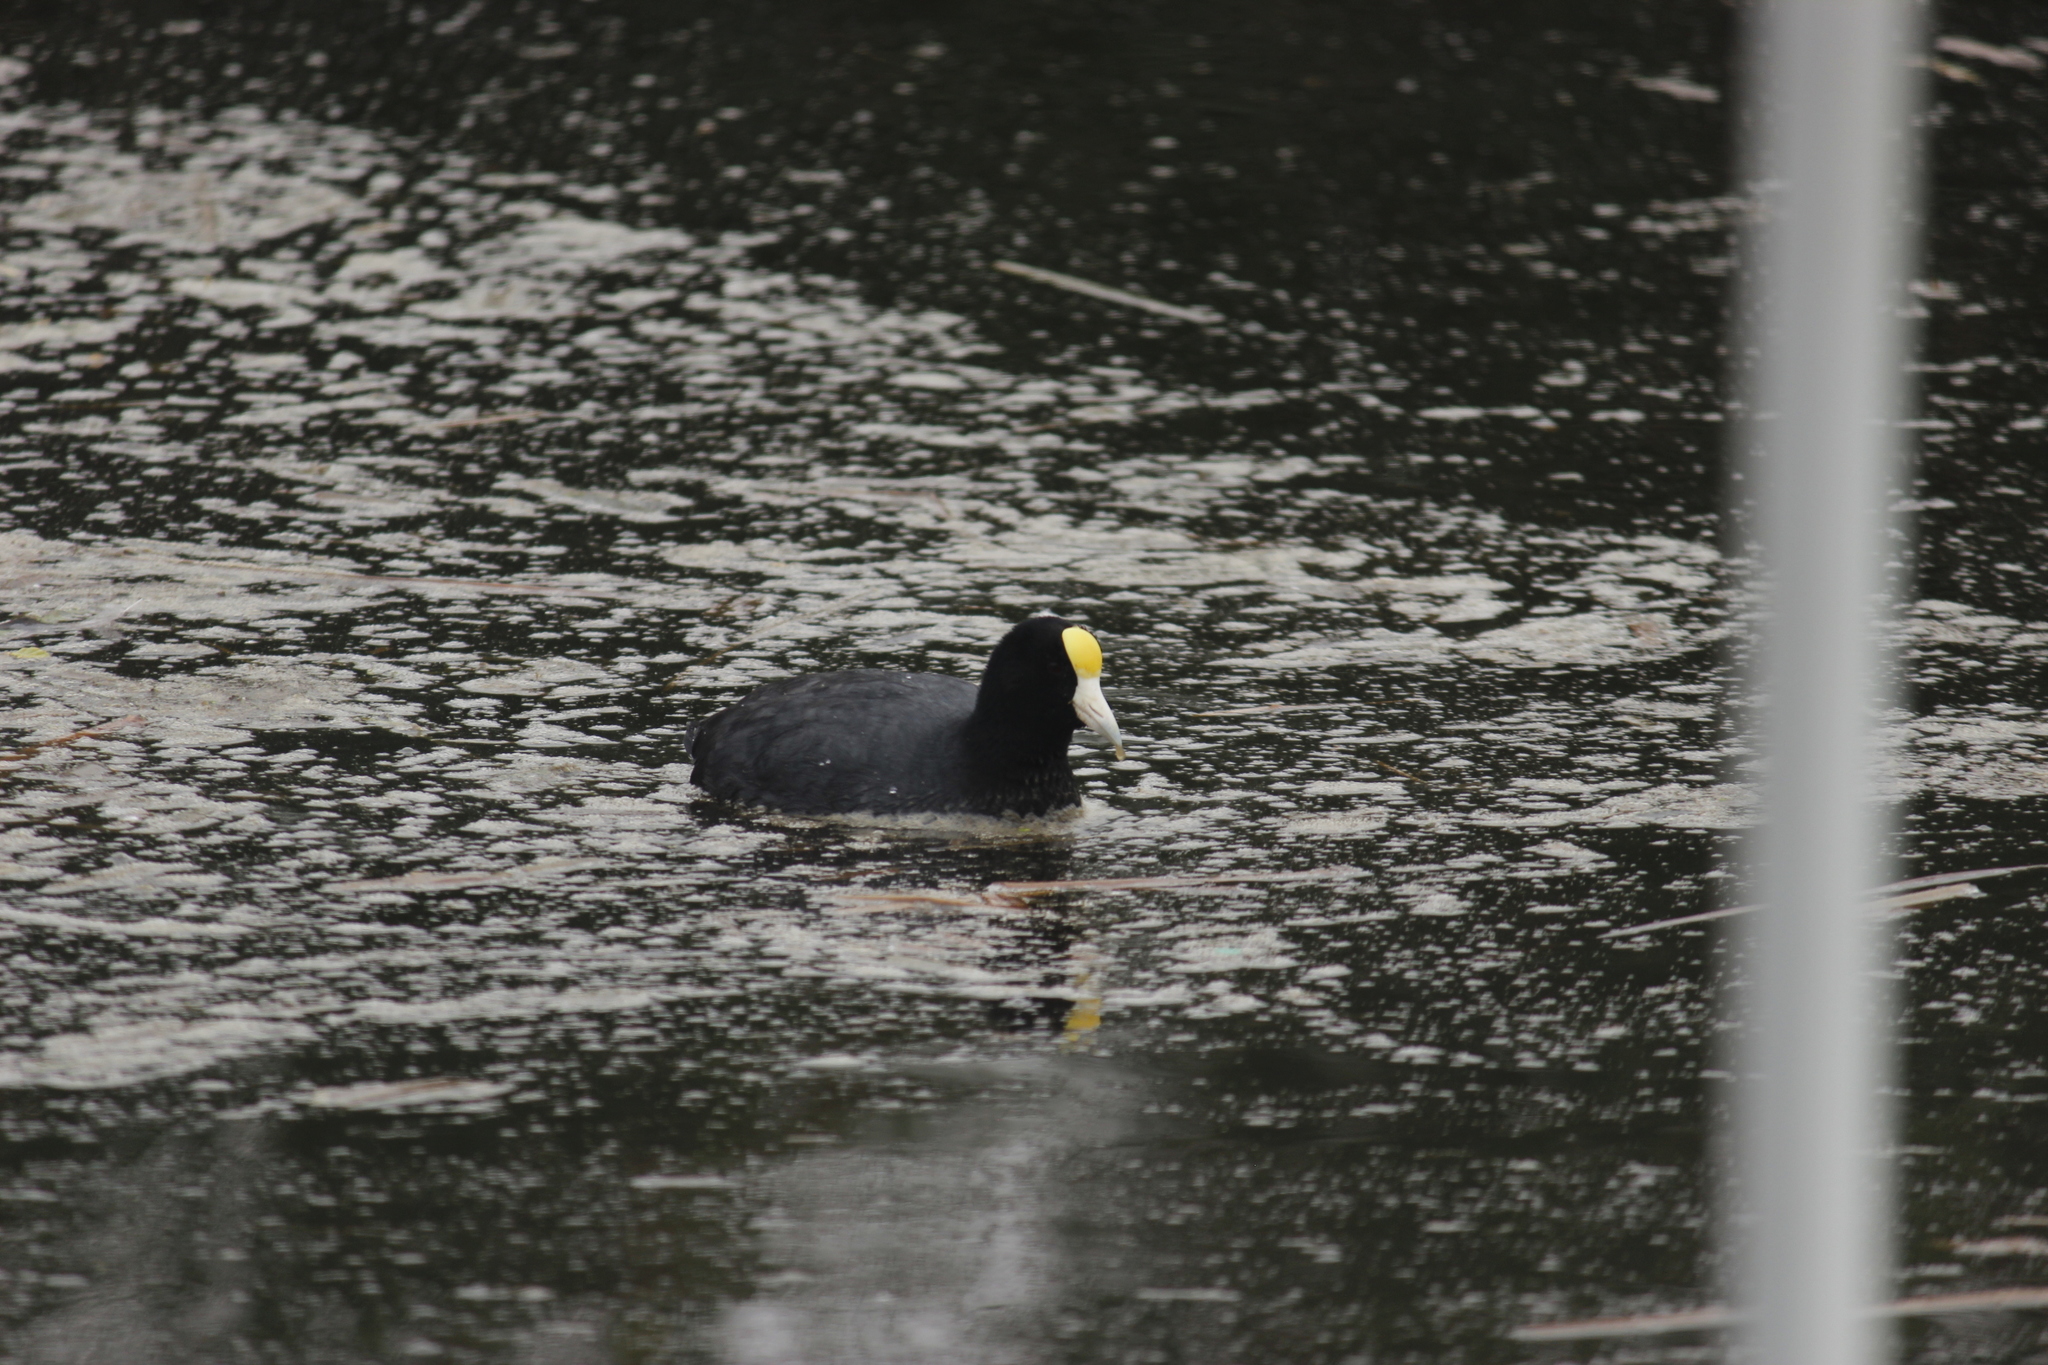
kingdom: Animalia
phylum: Chordata
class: Aves
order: Gruiformes
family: Rallidae
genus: Fulica
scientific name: Fulica ardesiaca
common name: Andean coot
